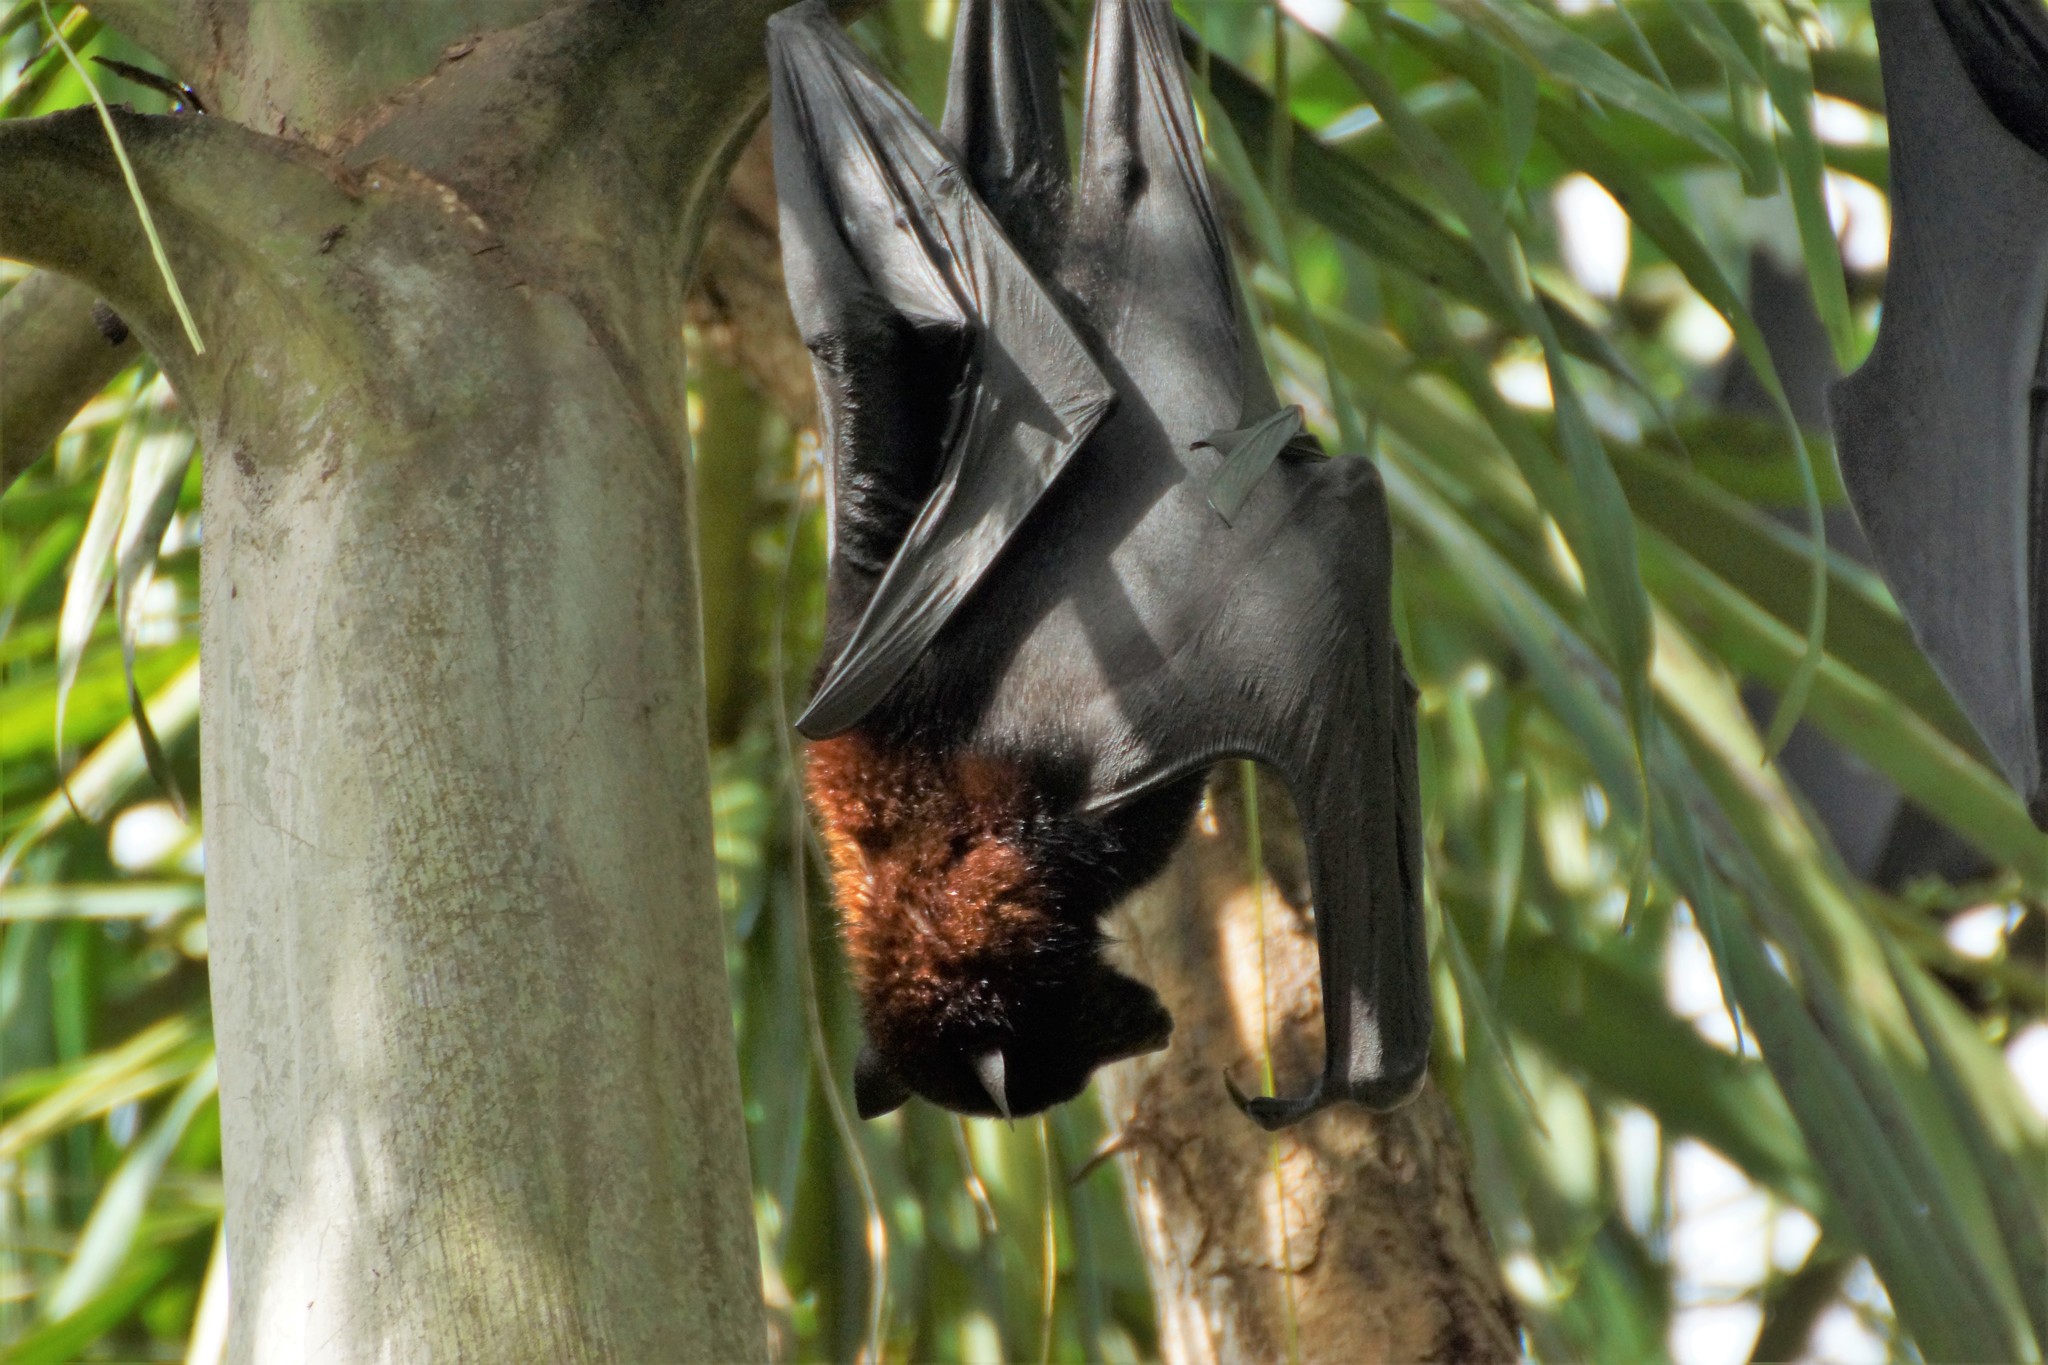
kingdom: Animalia
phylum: Chordata
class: Mammalia
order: Chiroptera
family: Pteropodidae
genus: Pteropus
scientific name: Pteropus alecto
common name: Black flying fox
